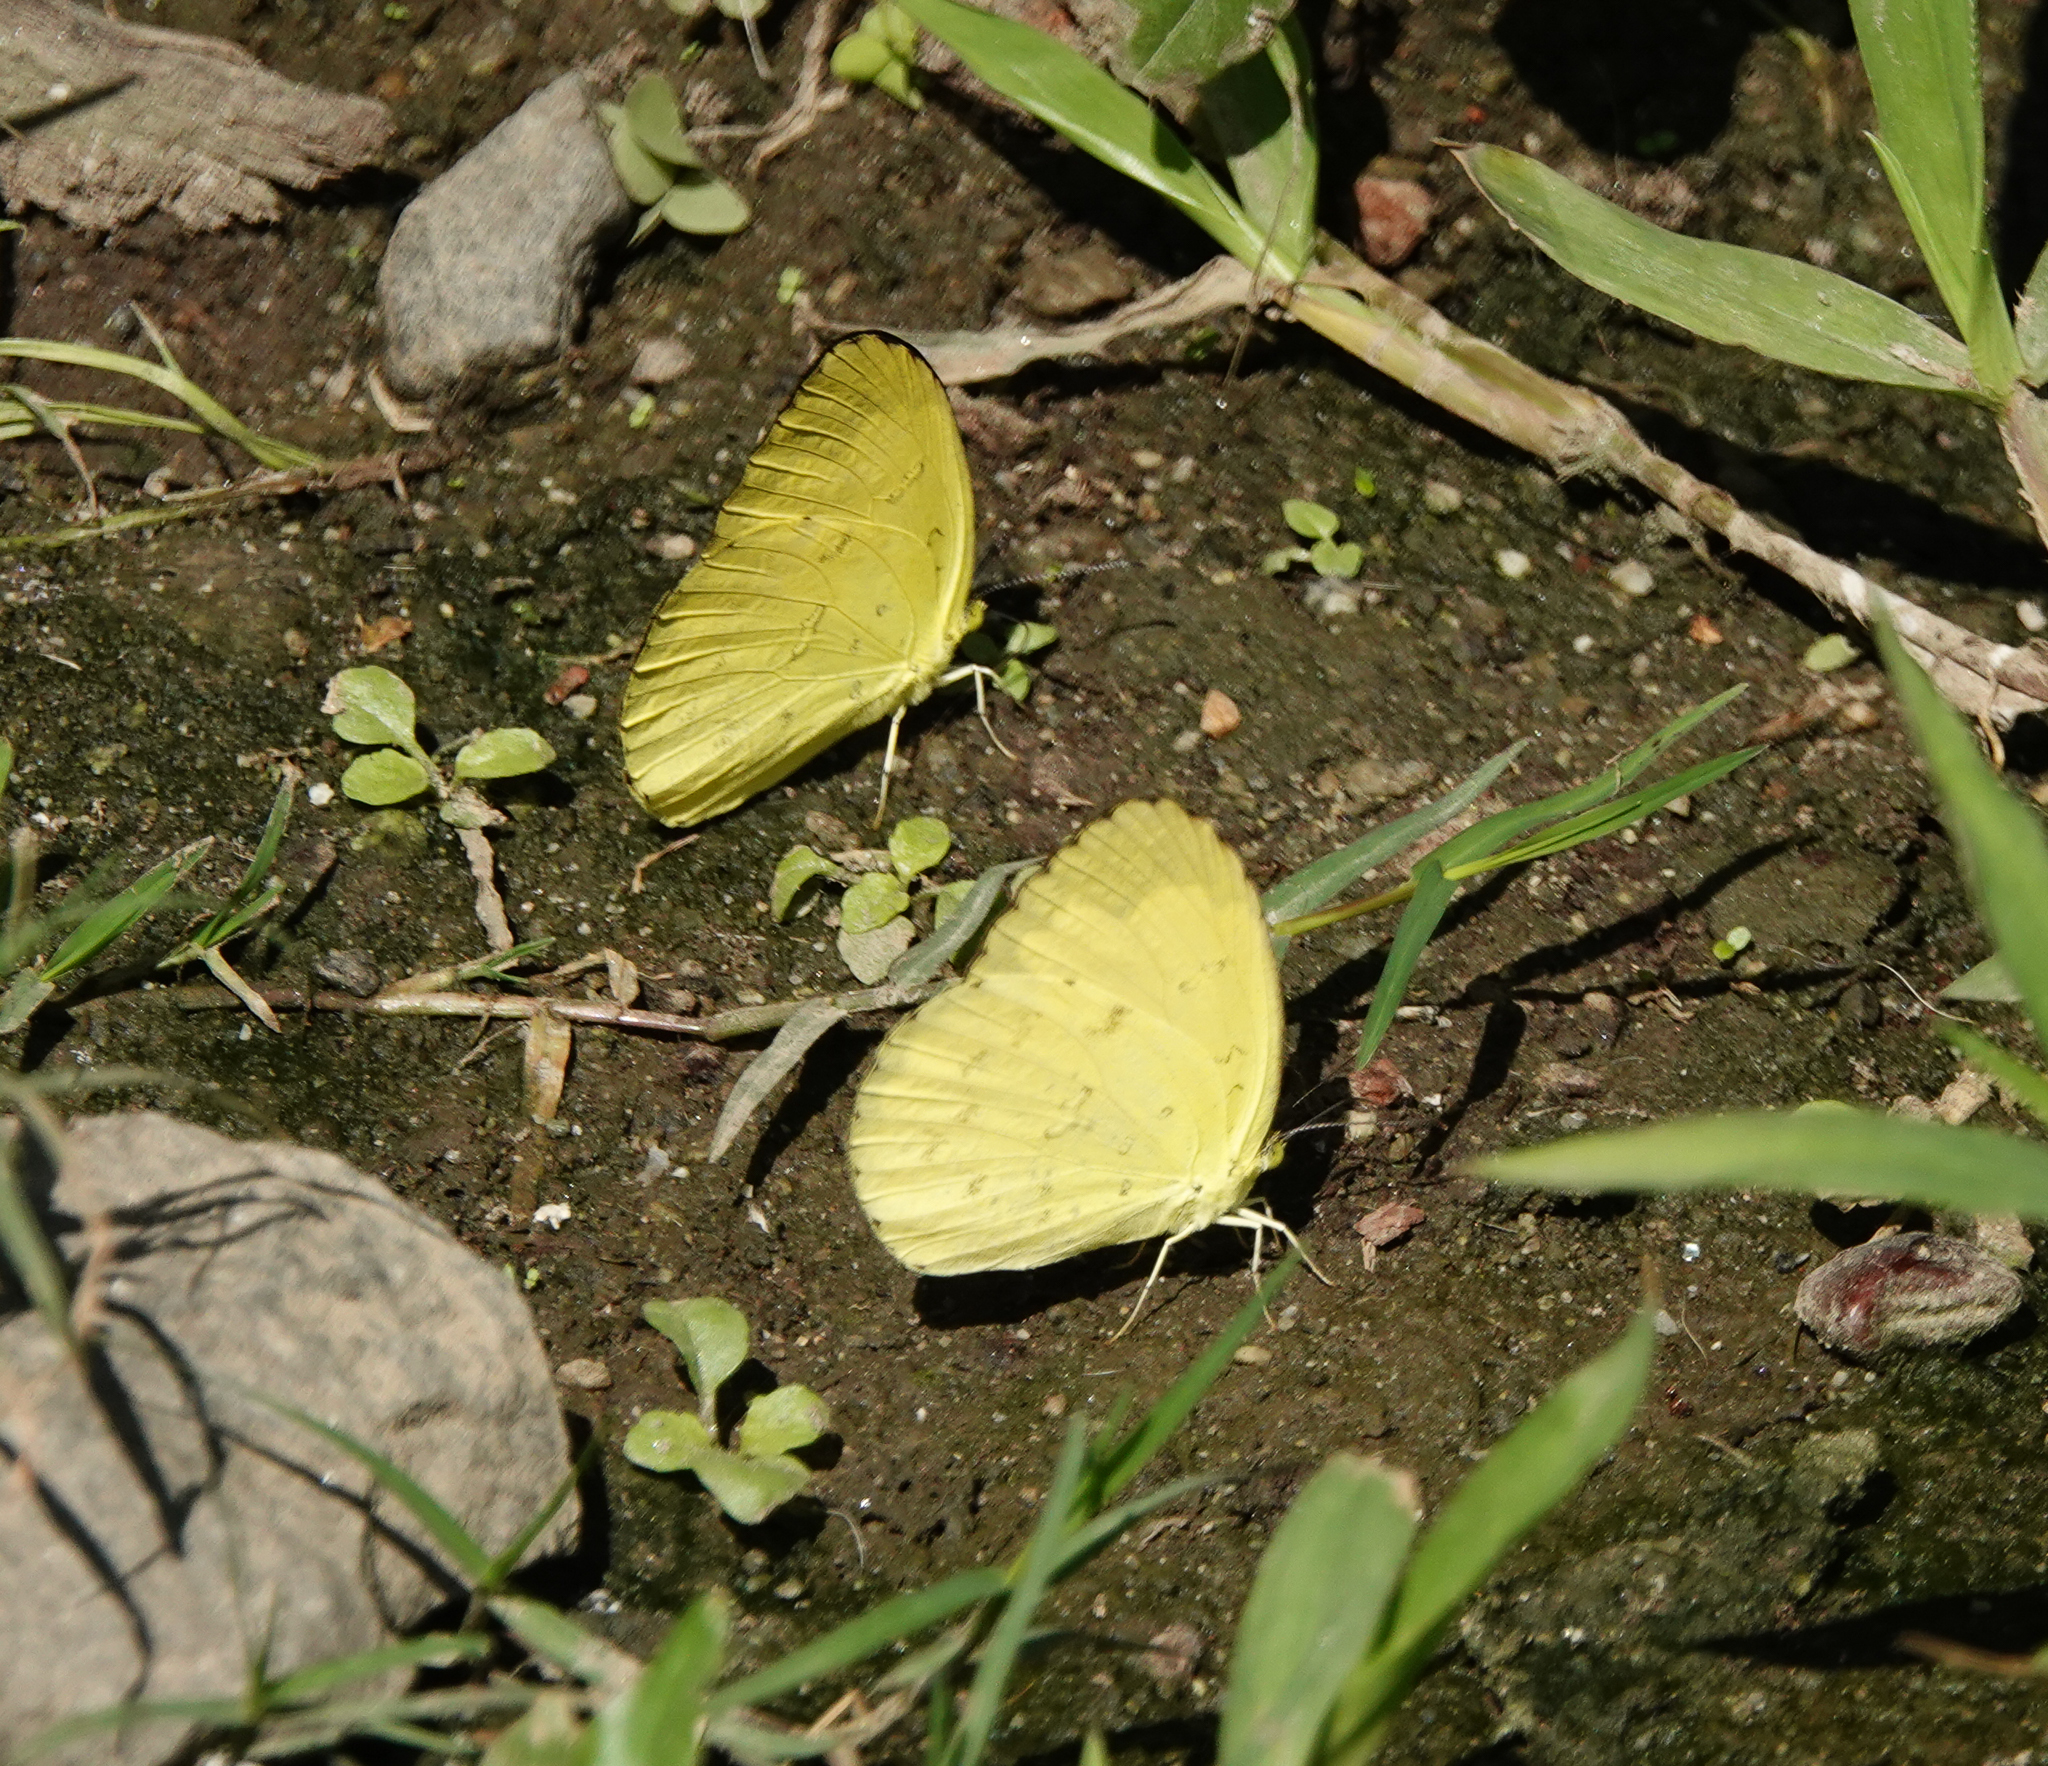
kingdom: Animalia
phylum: Arthropoda
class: Insecta
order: Lepidoptera
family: Pieridae
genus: Eurema
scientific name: Eurema blanda
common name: Three-spot grass yellow
